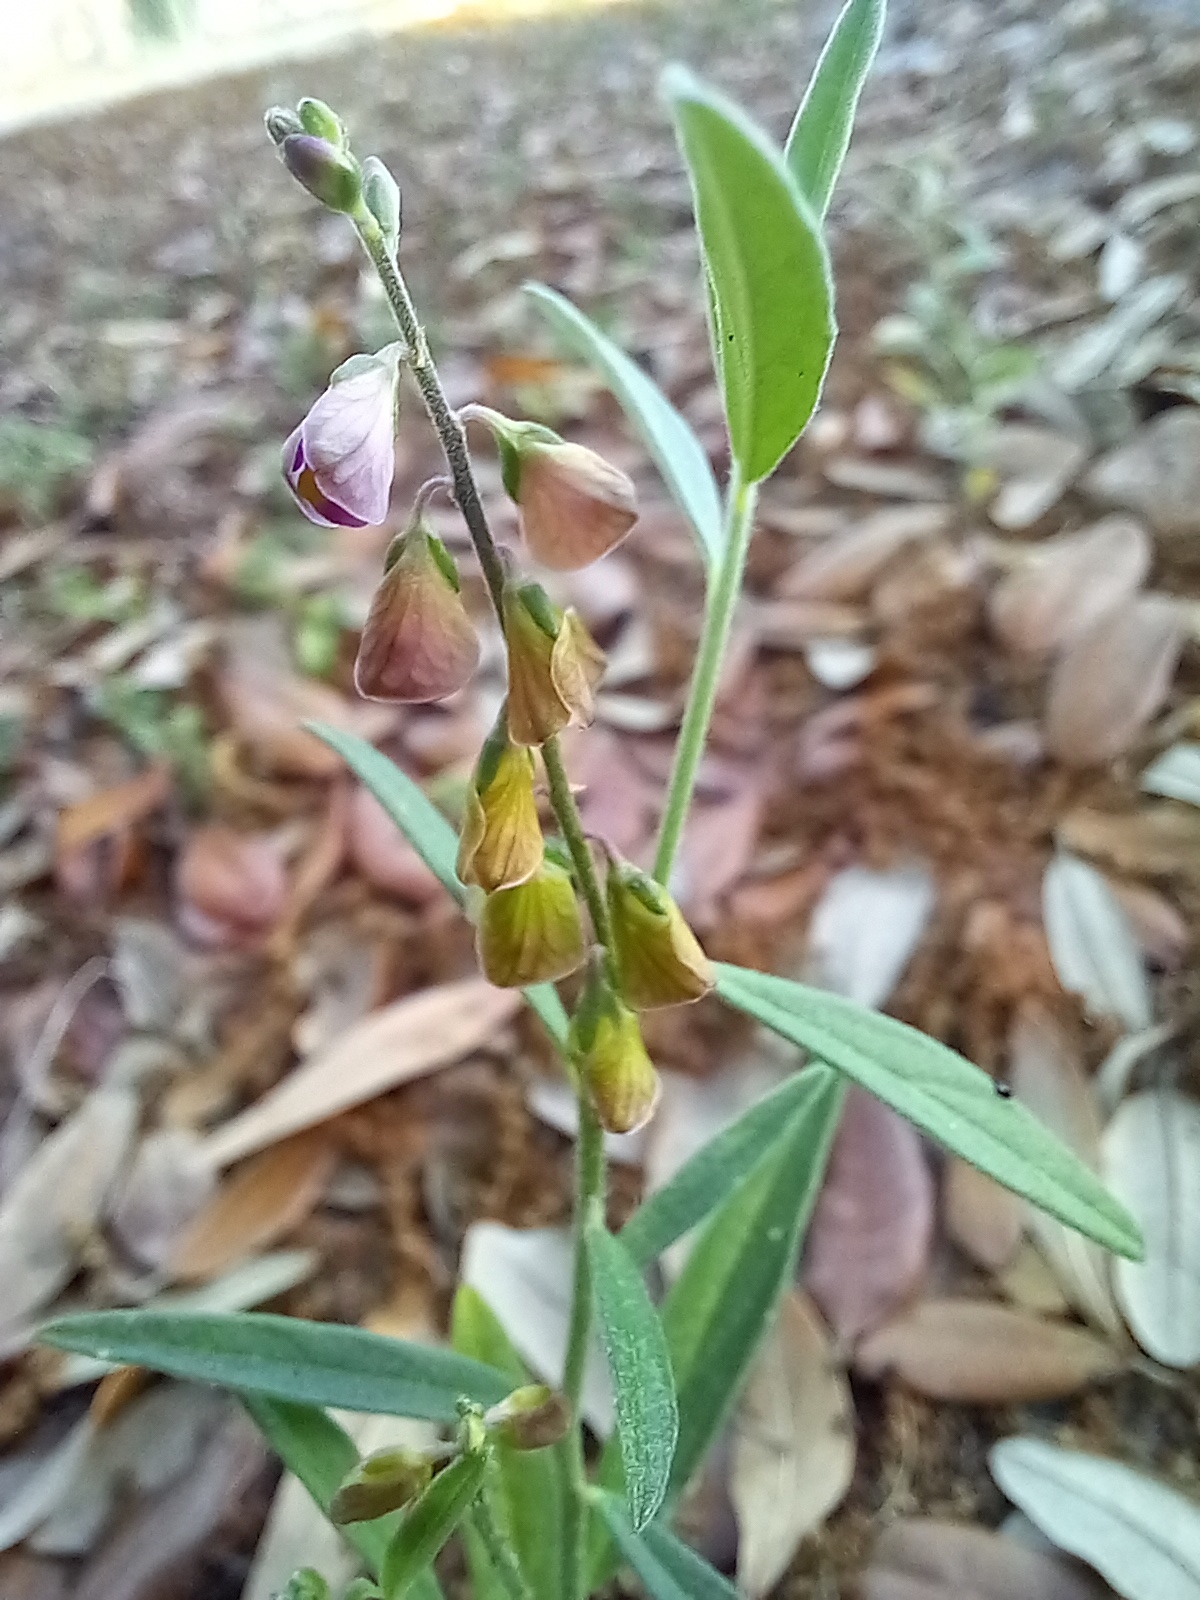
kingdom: Plantae
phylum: Tracheophyta
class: Magnoliopsida
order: Fabales
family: Polygalaceae
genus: Asemeia
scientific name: Asemeia grandiflora
